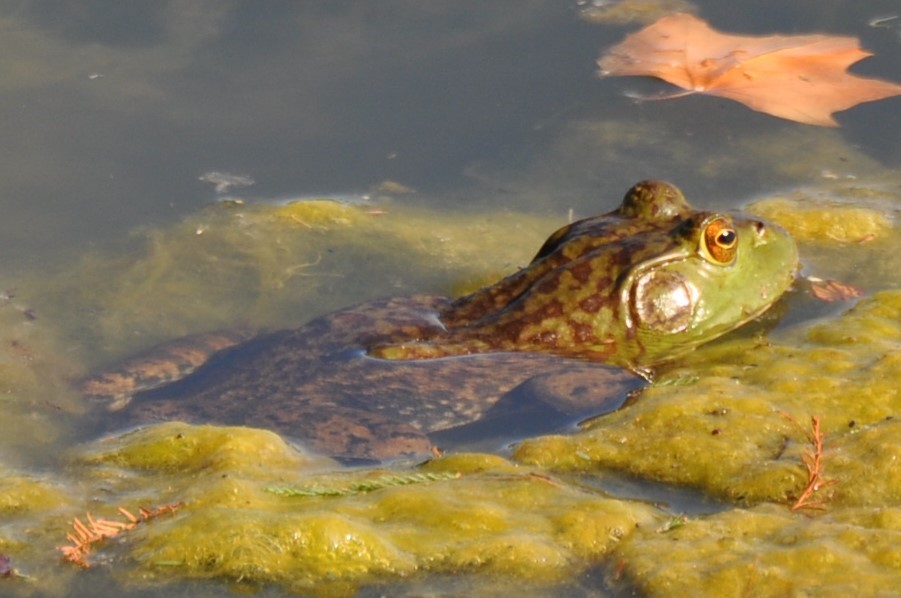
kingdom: Animalia
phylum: Chordata
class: Amphibia
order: Anura
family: Ranidae
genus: Lithobates
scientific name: Lithobates catesbeianus
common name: American bullfrog
